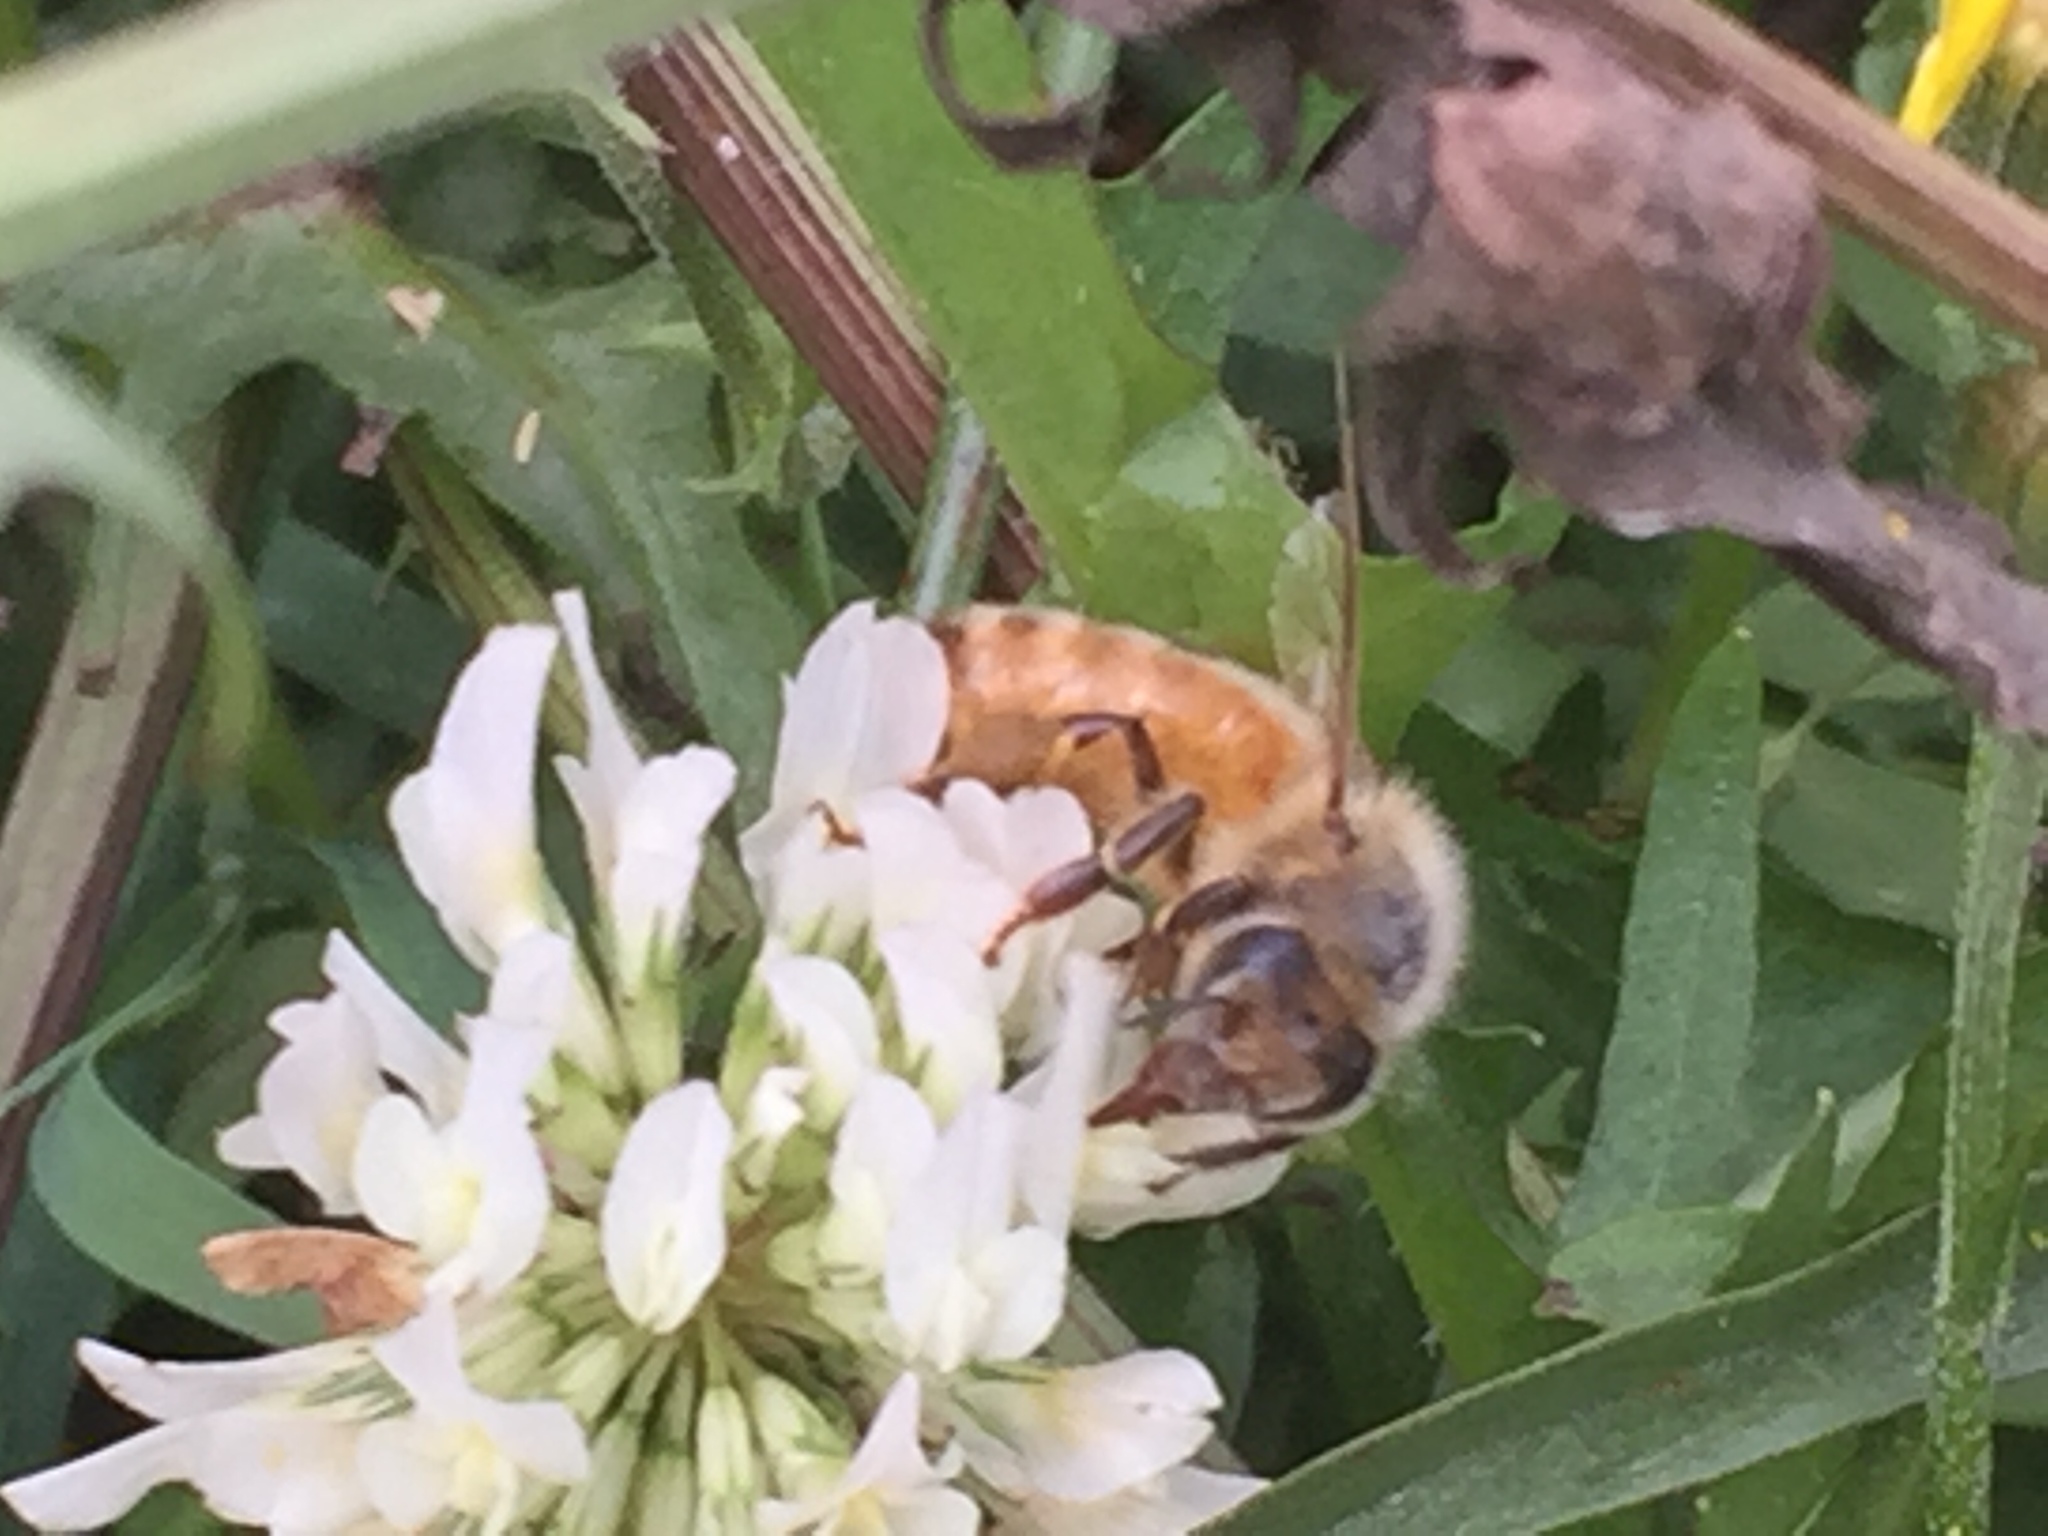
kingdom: Animalia
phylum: Arthropoda
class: Insecta
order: Hymenoptera
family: Apidae
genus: Apis
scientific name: Apis mellifera
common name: Honey bee
